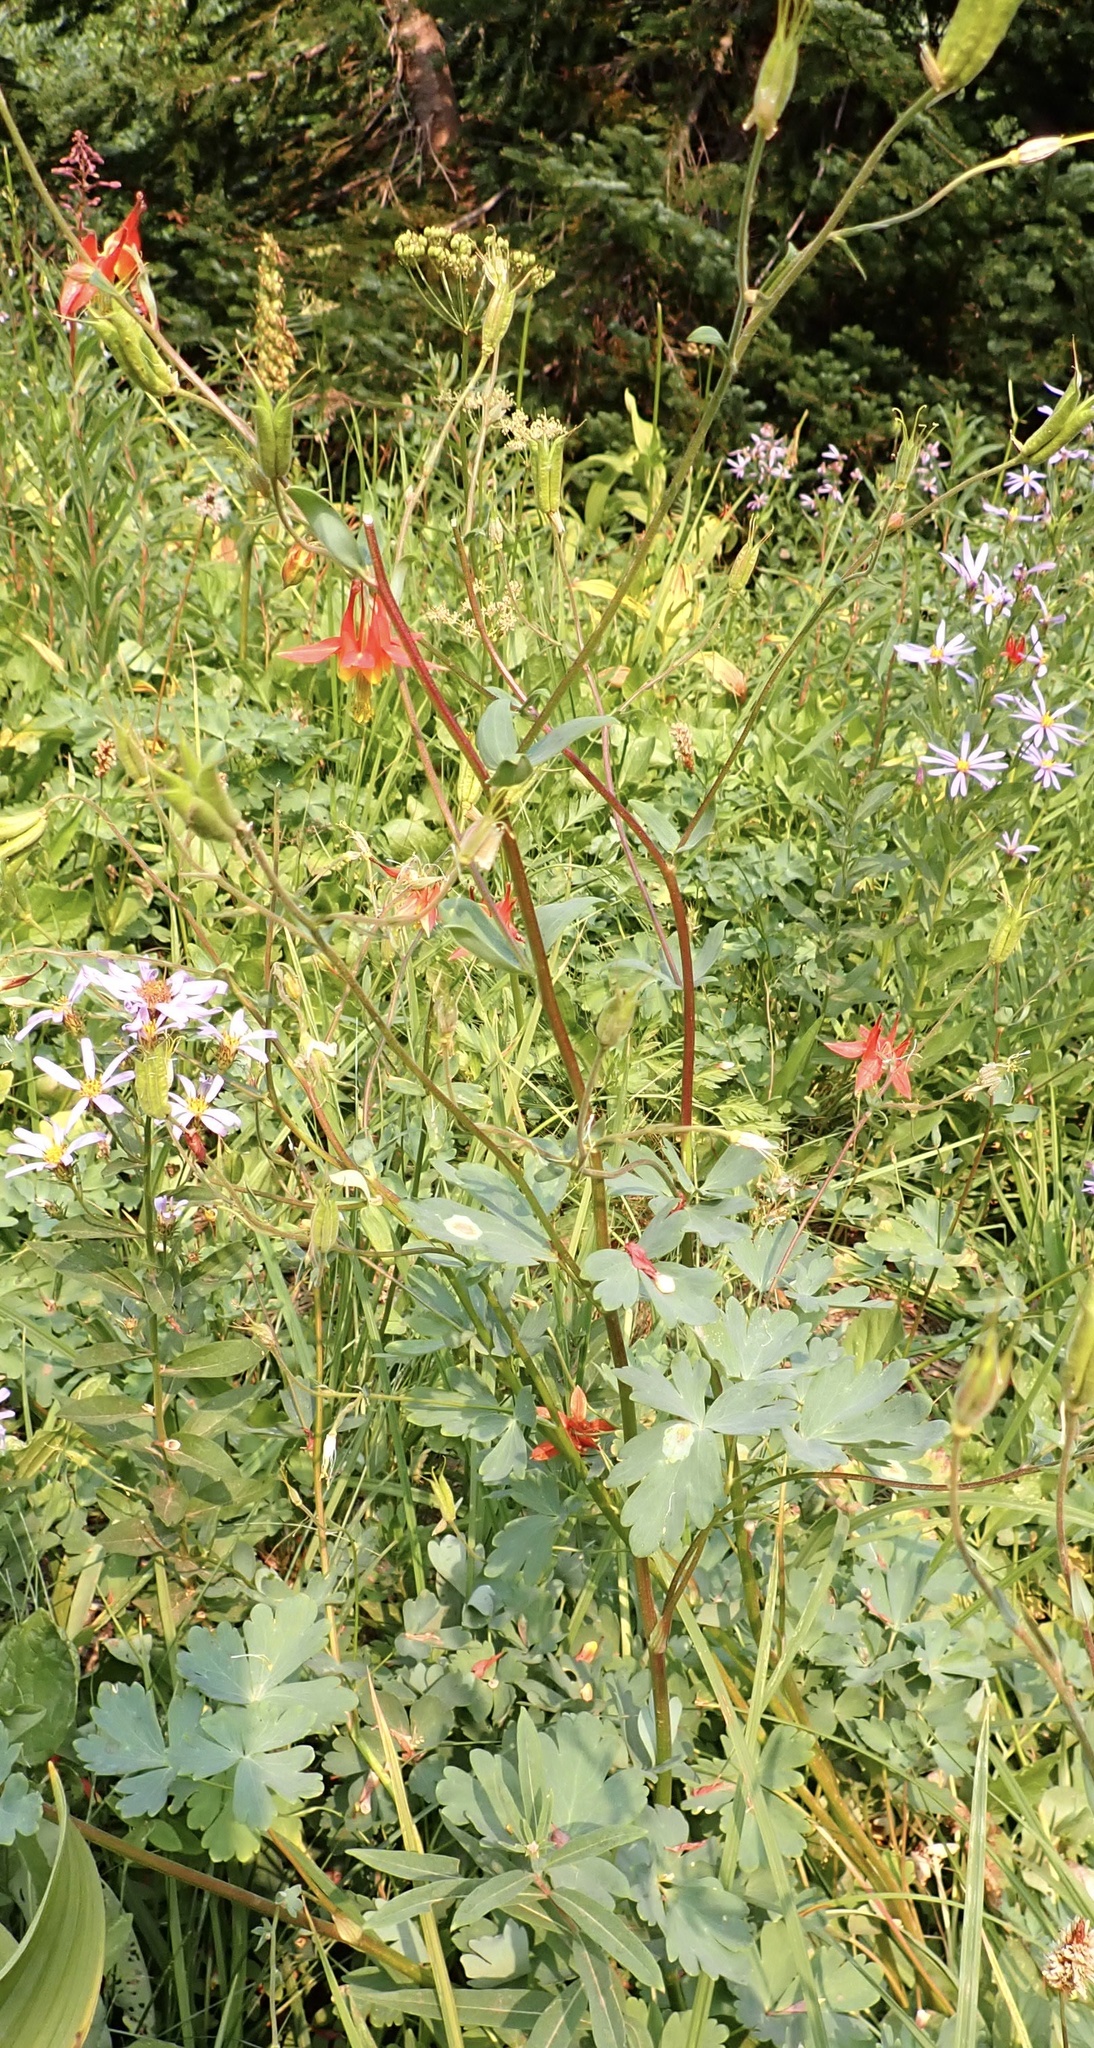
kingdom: Plantae
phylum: Tracheophyta
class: Magnoliopsida
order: Ranunculales
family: Ranunculaceae
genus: Aquilegia
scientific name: Aquilegia formosa
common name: Sitka columbine
